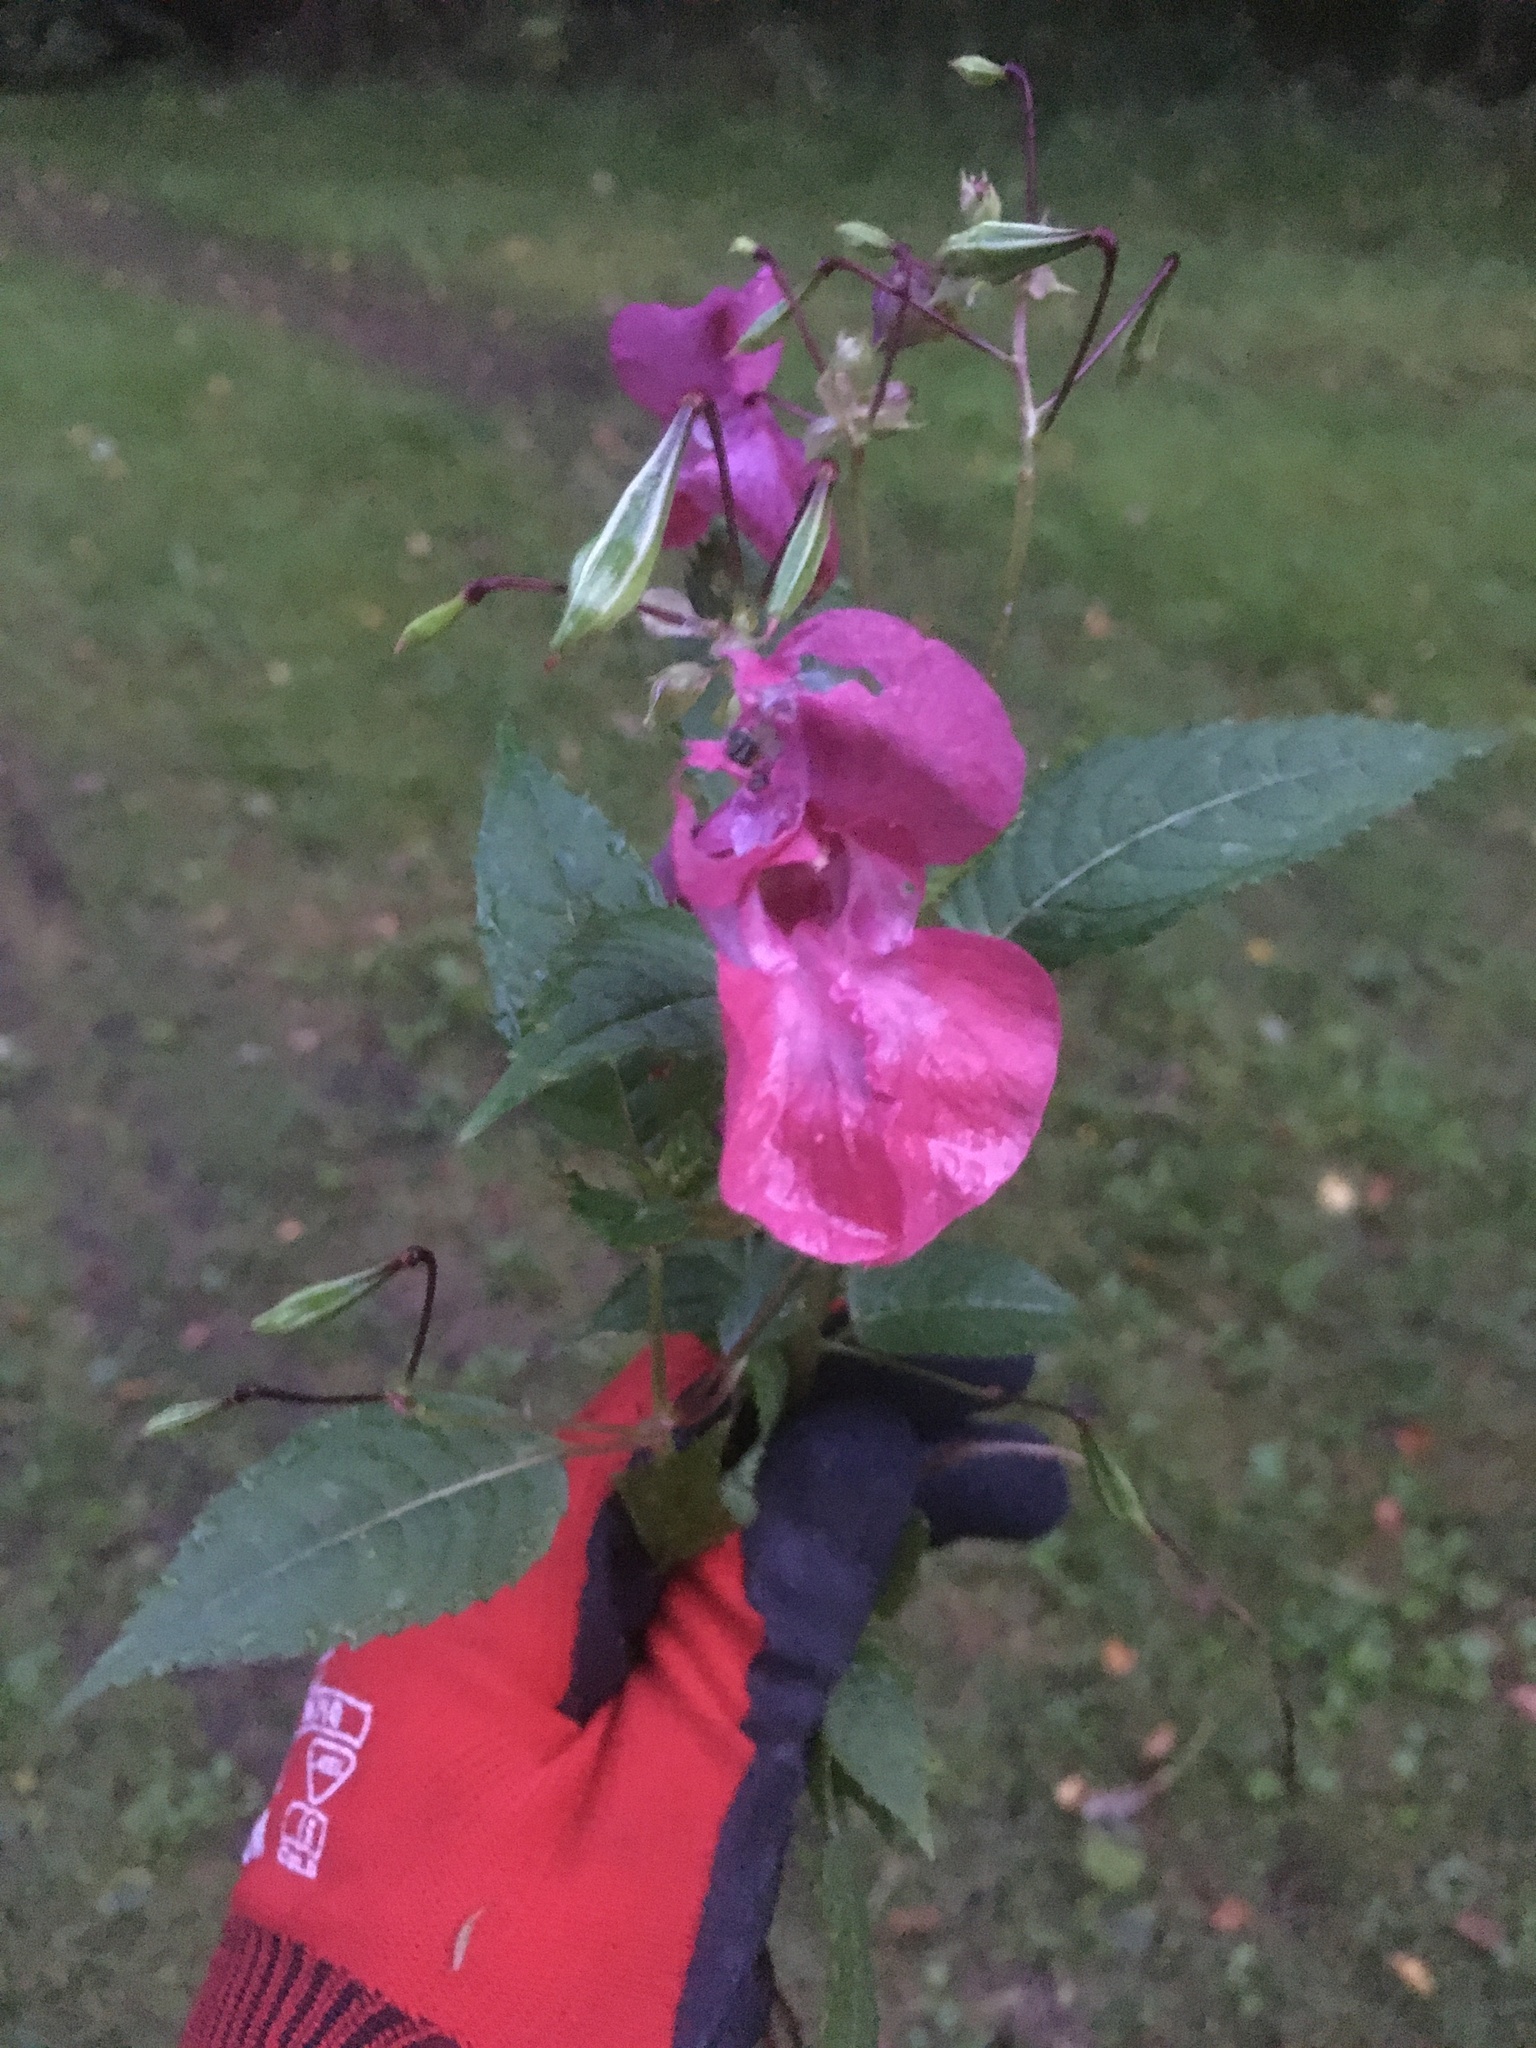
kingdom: Plantae
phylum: Tracheophyta
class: Magnoliopsida
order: Ericales
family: Balsaminaceae
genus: Impatiens
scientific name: Impatiens glandulifera
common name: Himalayan balsam
